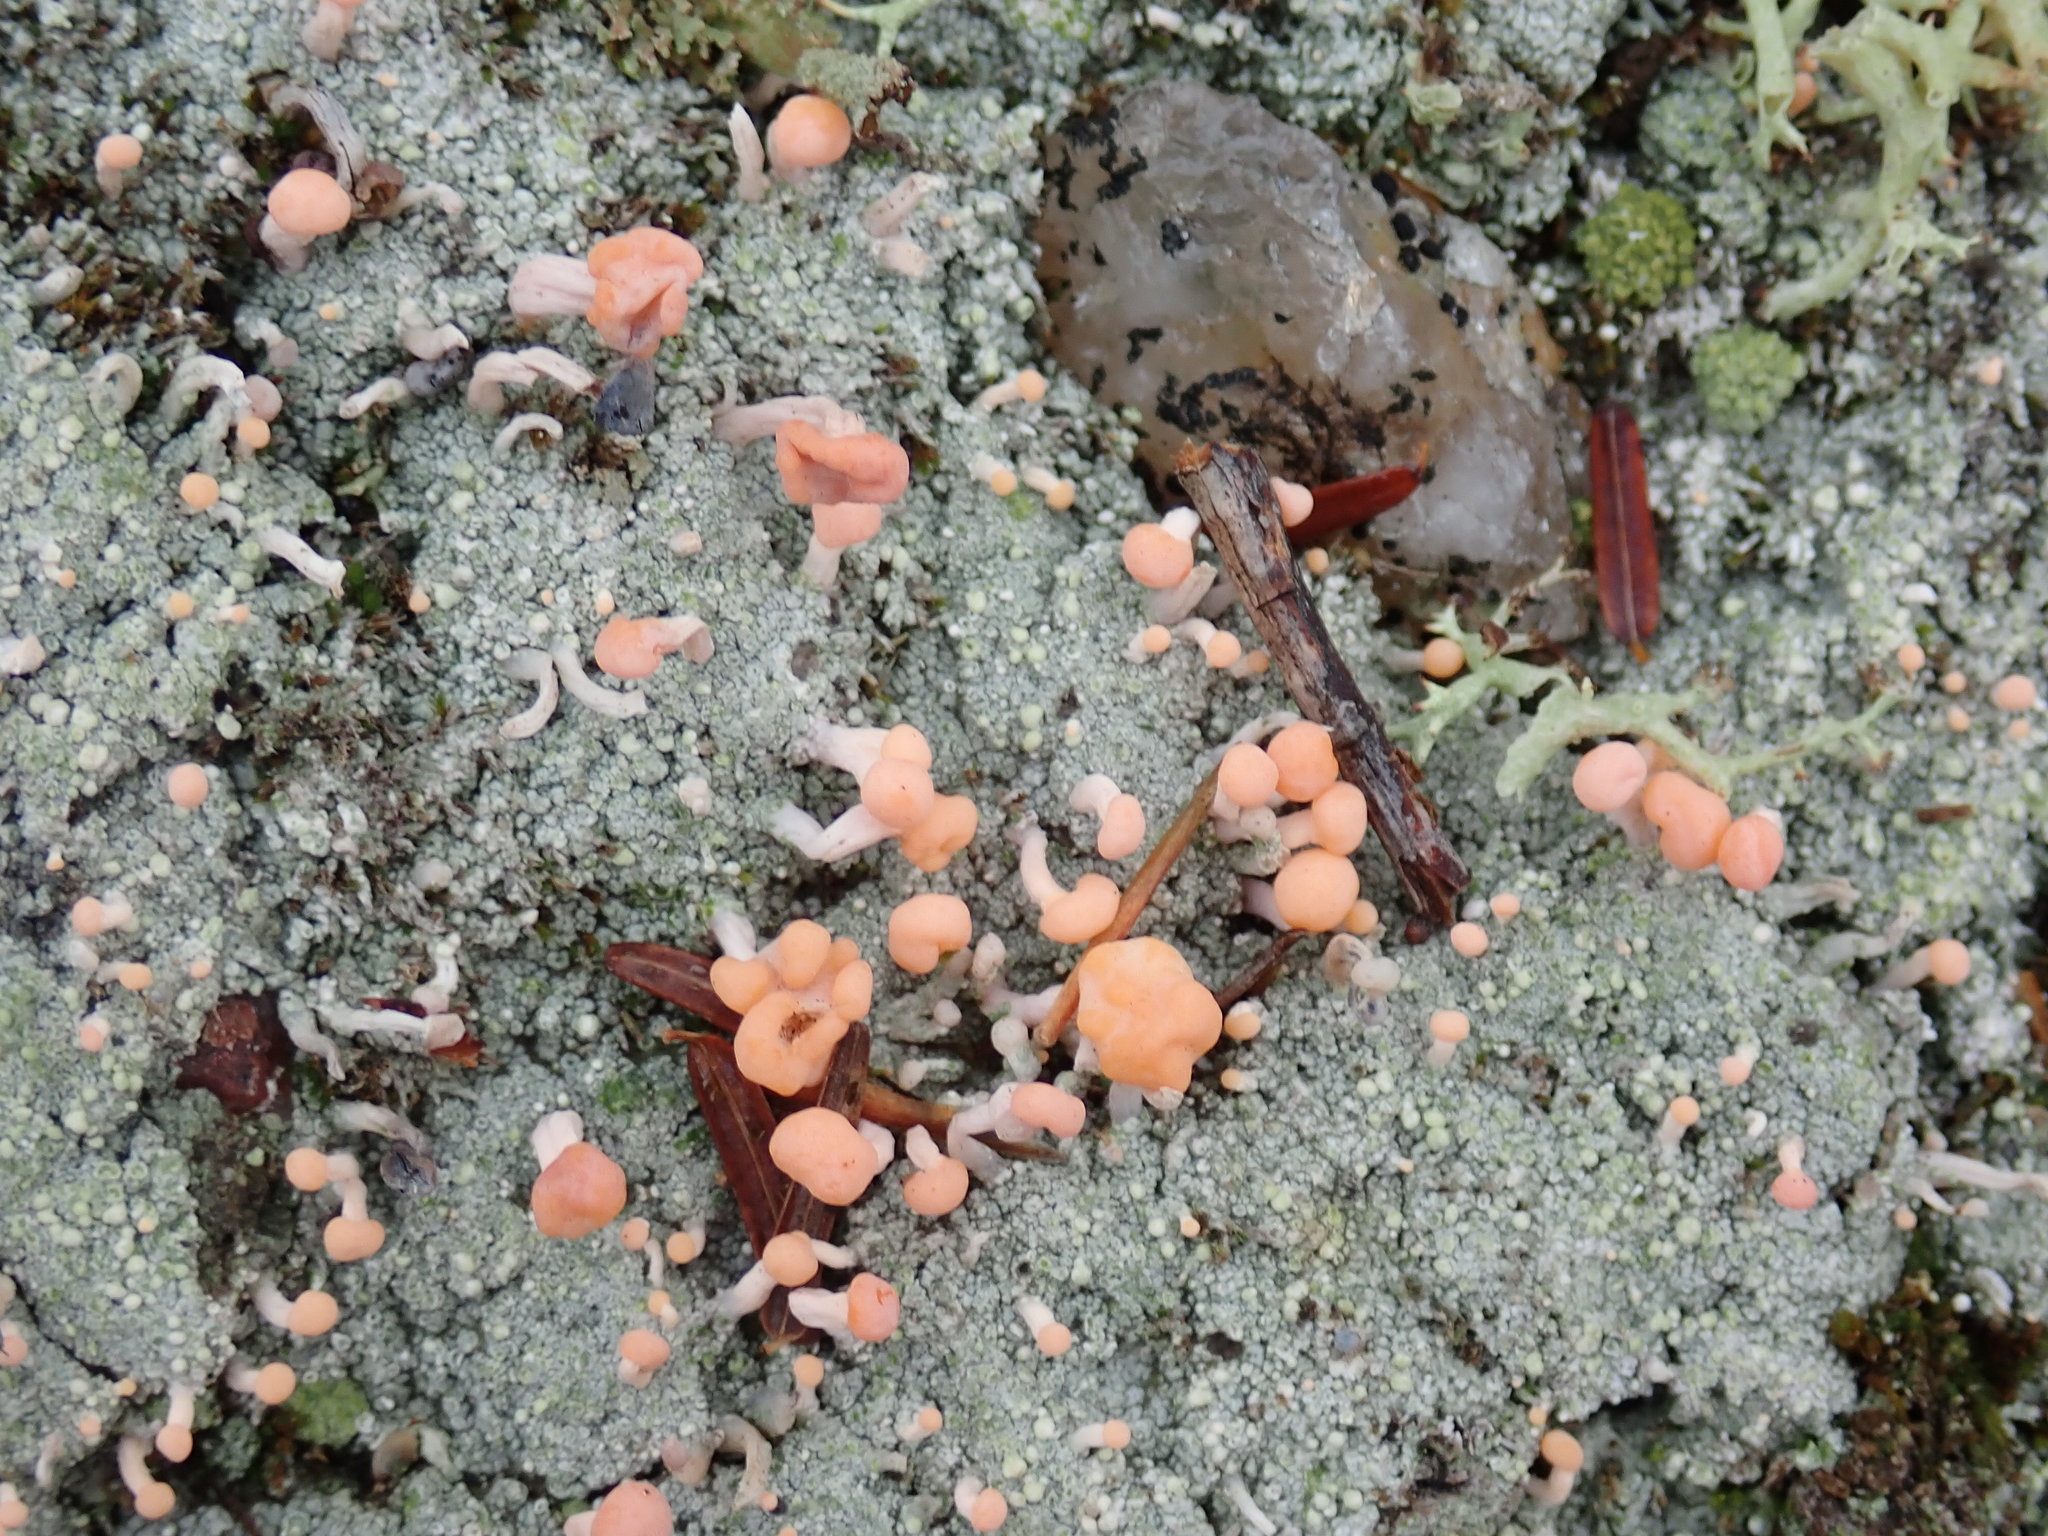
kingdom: Fungi
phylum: Ascomycota
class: Lecanoromycetes
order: Pertusariales
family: Icmadophilaceae
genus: Dibaeis
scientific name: Dibaeis baeomyces
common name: Pink earth lichen
